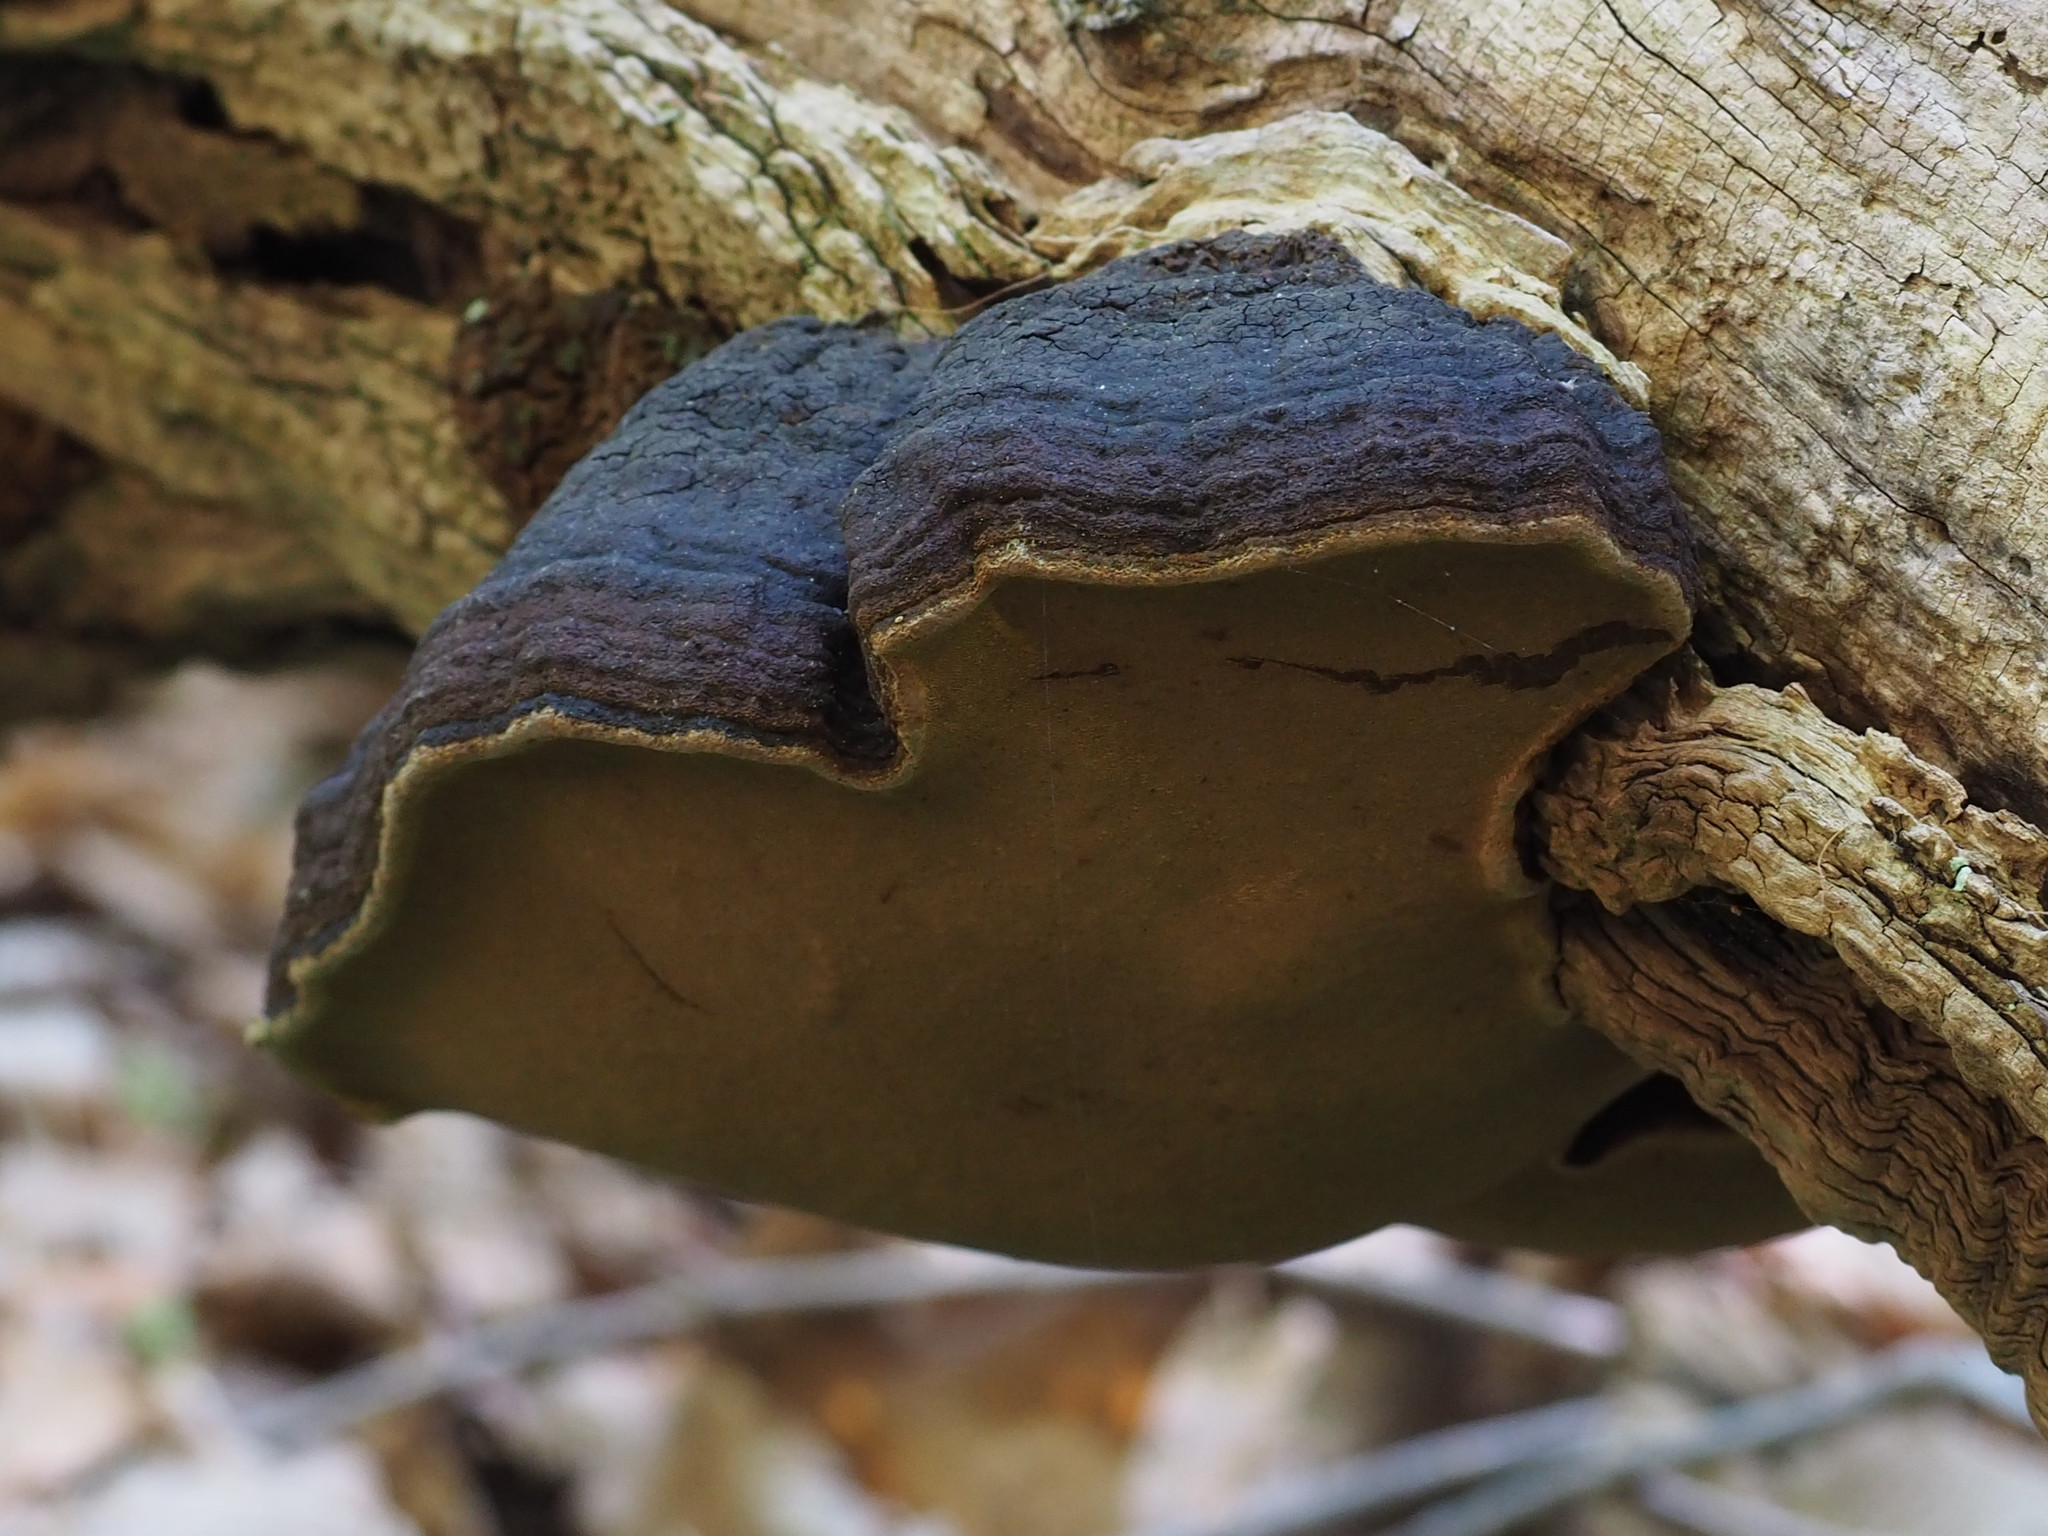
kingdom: Fungi
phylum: Basidiomycota
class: Agaricomycetes
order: Hymenochaetales
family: Hymenochaetaceae
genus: Phellinus
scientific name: Phellinus robiniae
